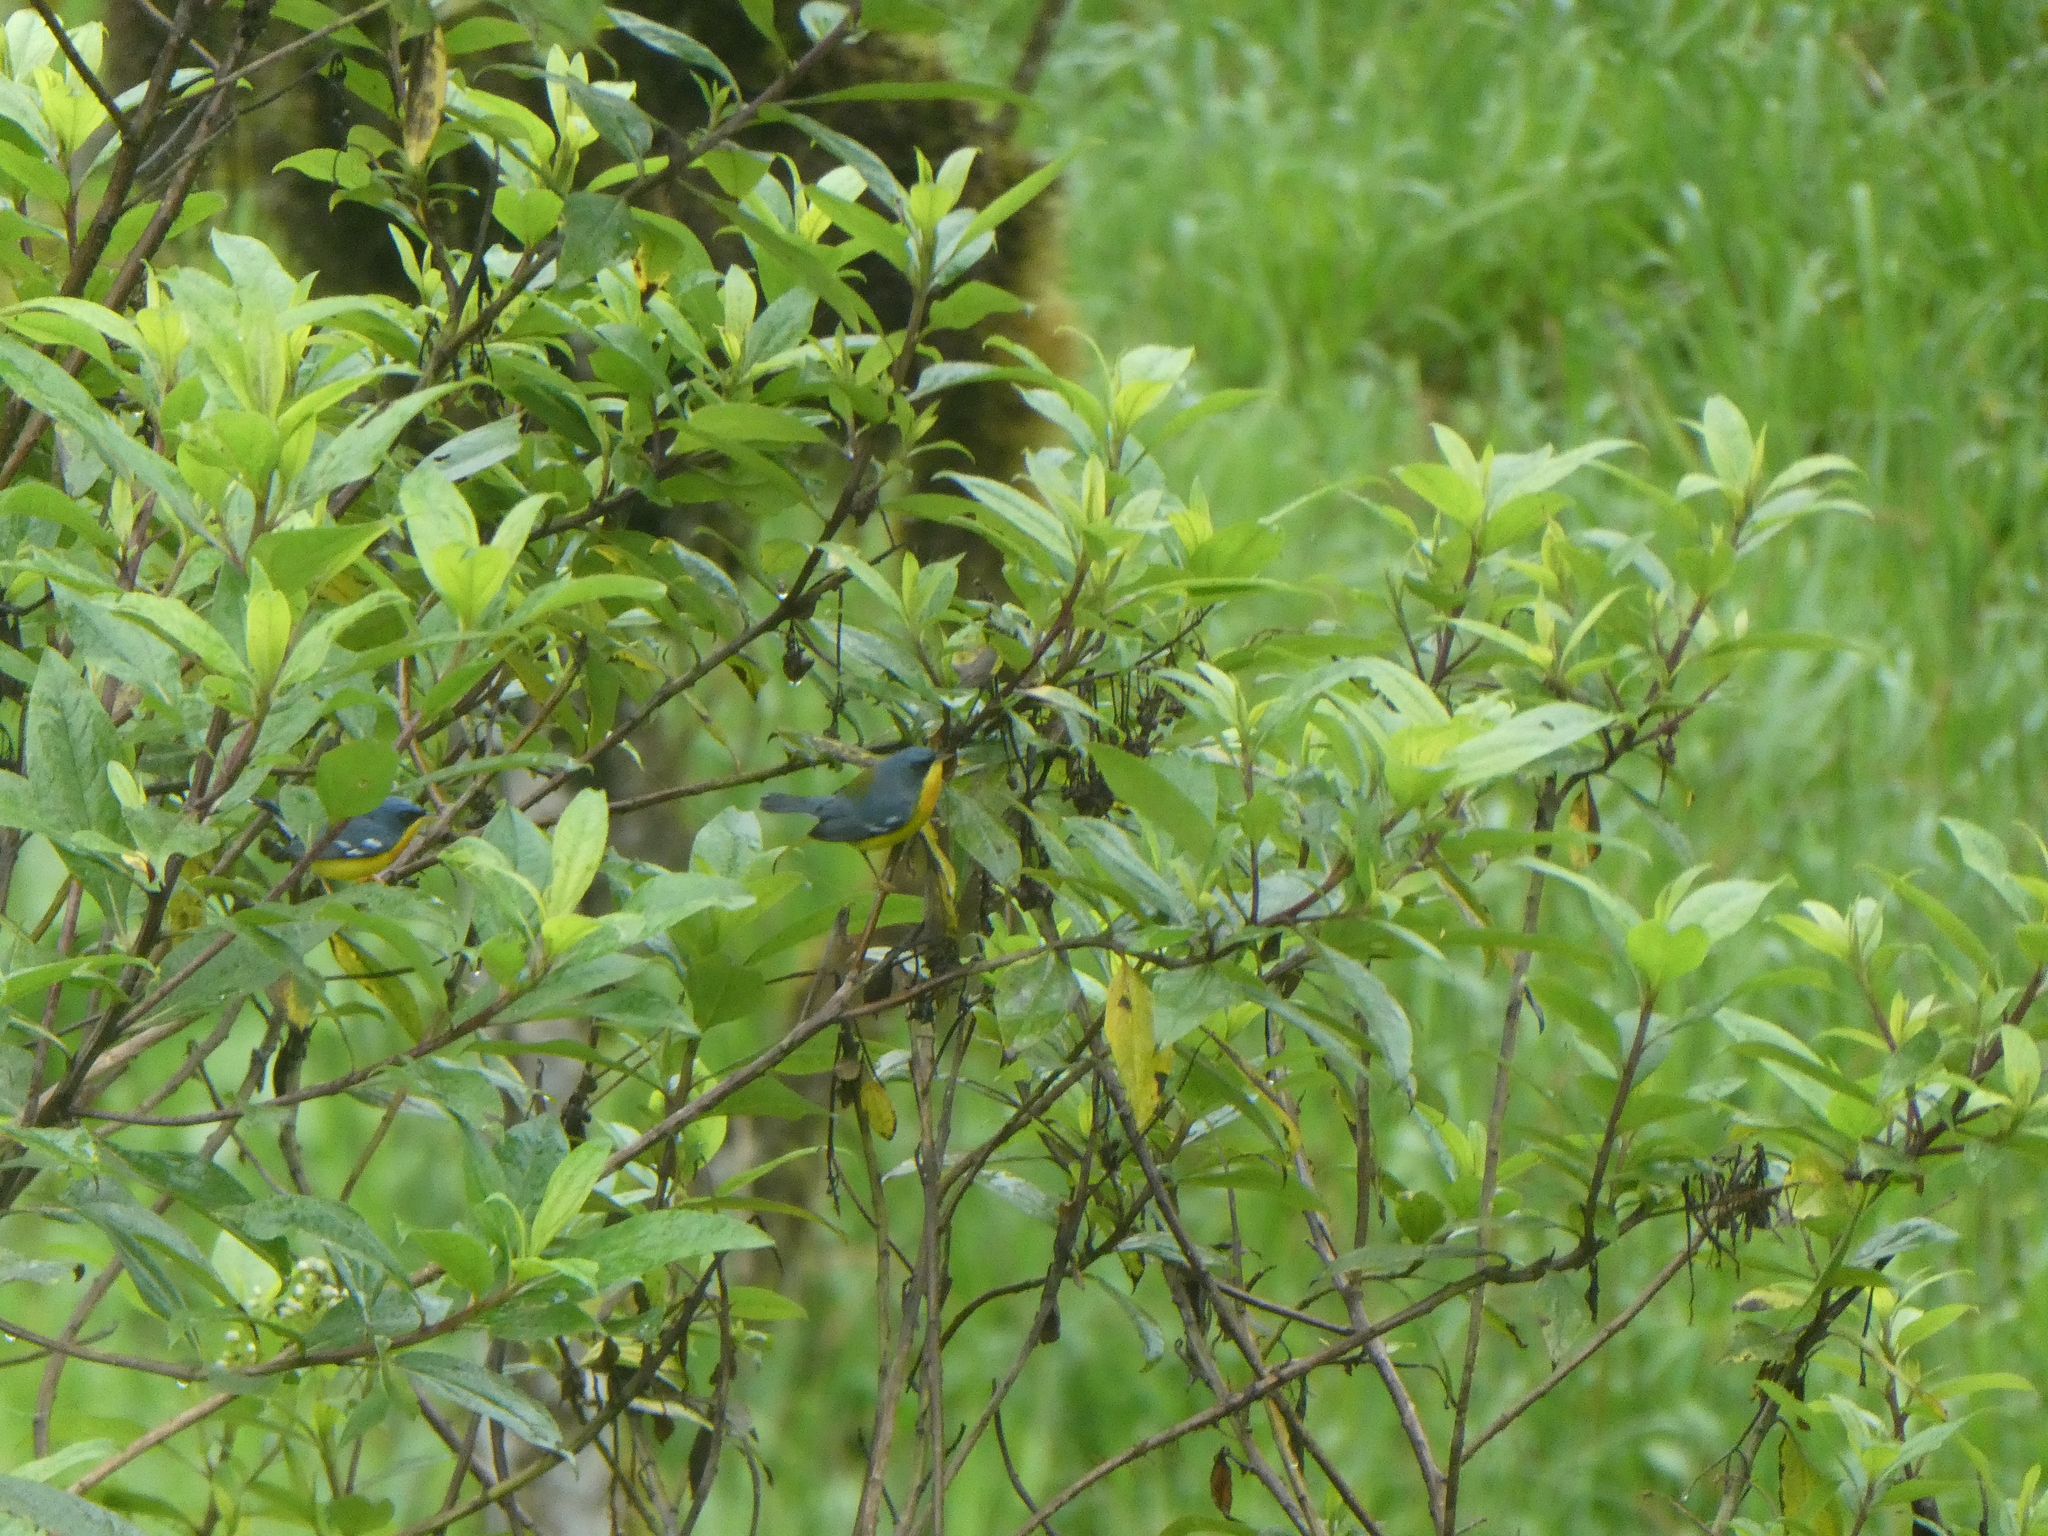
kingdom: Animalia
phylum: Chordata
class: Aves
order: Passeriformes
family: Parulidae
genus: Setophaga
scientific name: Setophaga pitiayumi
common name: Tropical parula
